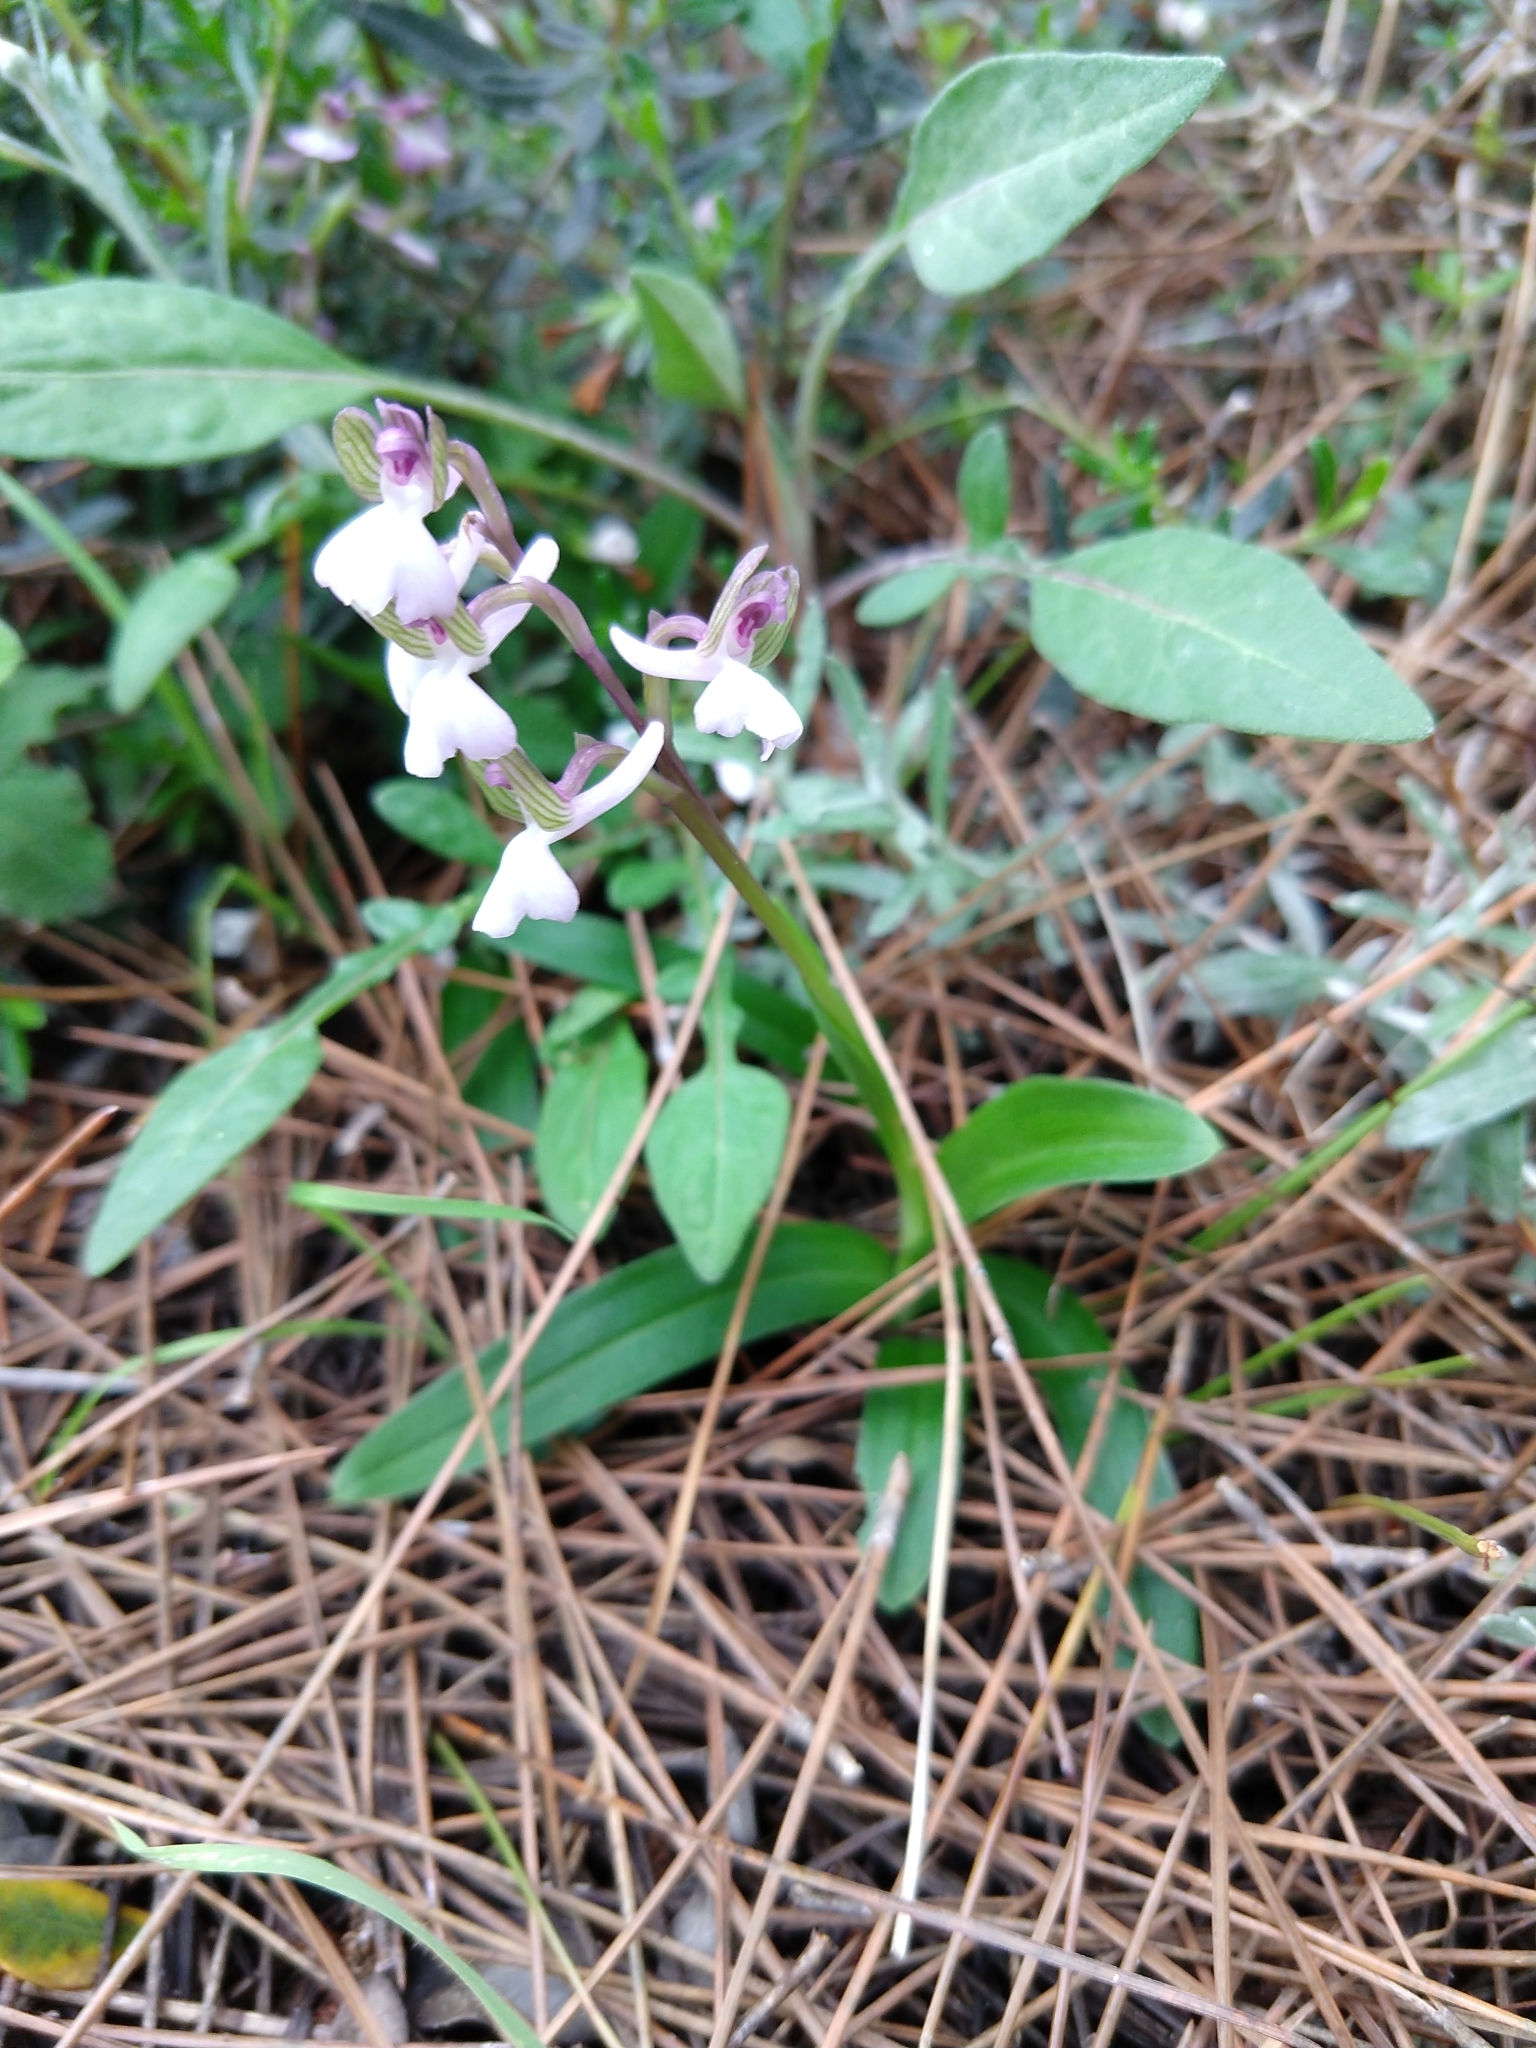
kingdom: Plantae
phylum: Tracheophyta
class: Liliopsida
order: Asparagales
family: Orchidaceae
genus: Anacamptis
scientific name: Anacamptis morio
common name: Green-winged orchid
